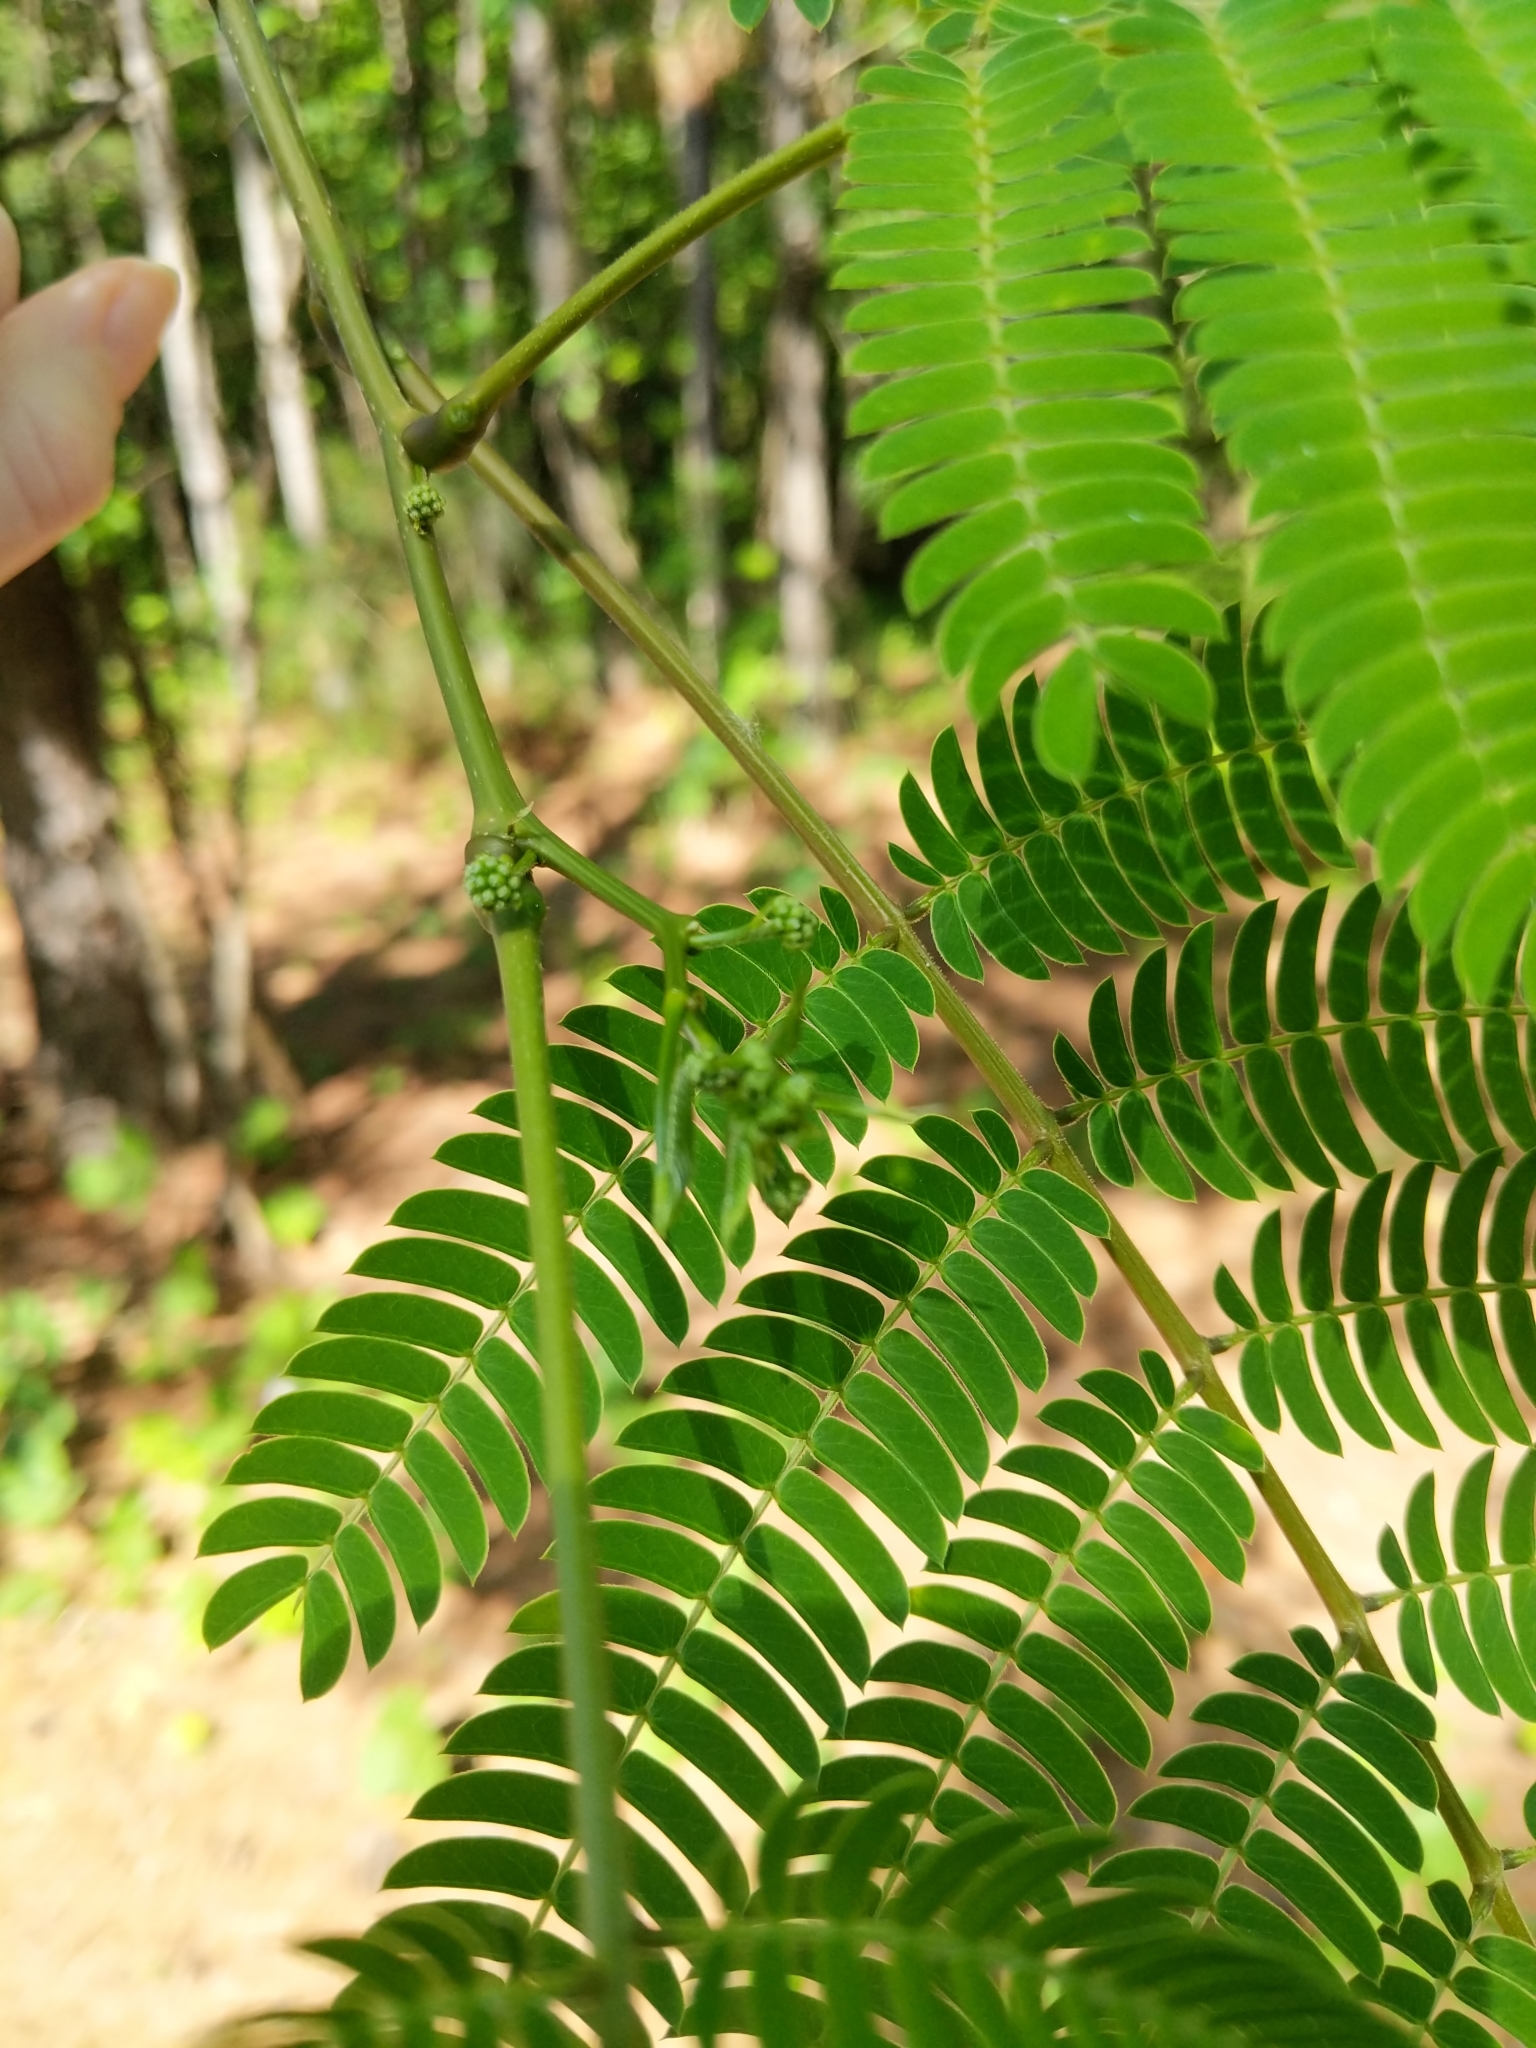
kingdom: Plantae
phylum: Tracheophyta
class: Magnoliopsida
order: Fabales
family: Fabaceae
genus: Albizia
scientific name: Albizia julibrissin
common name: Silktree
